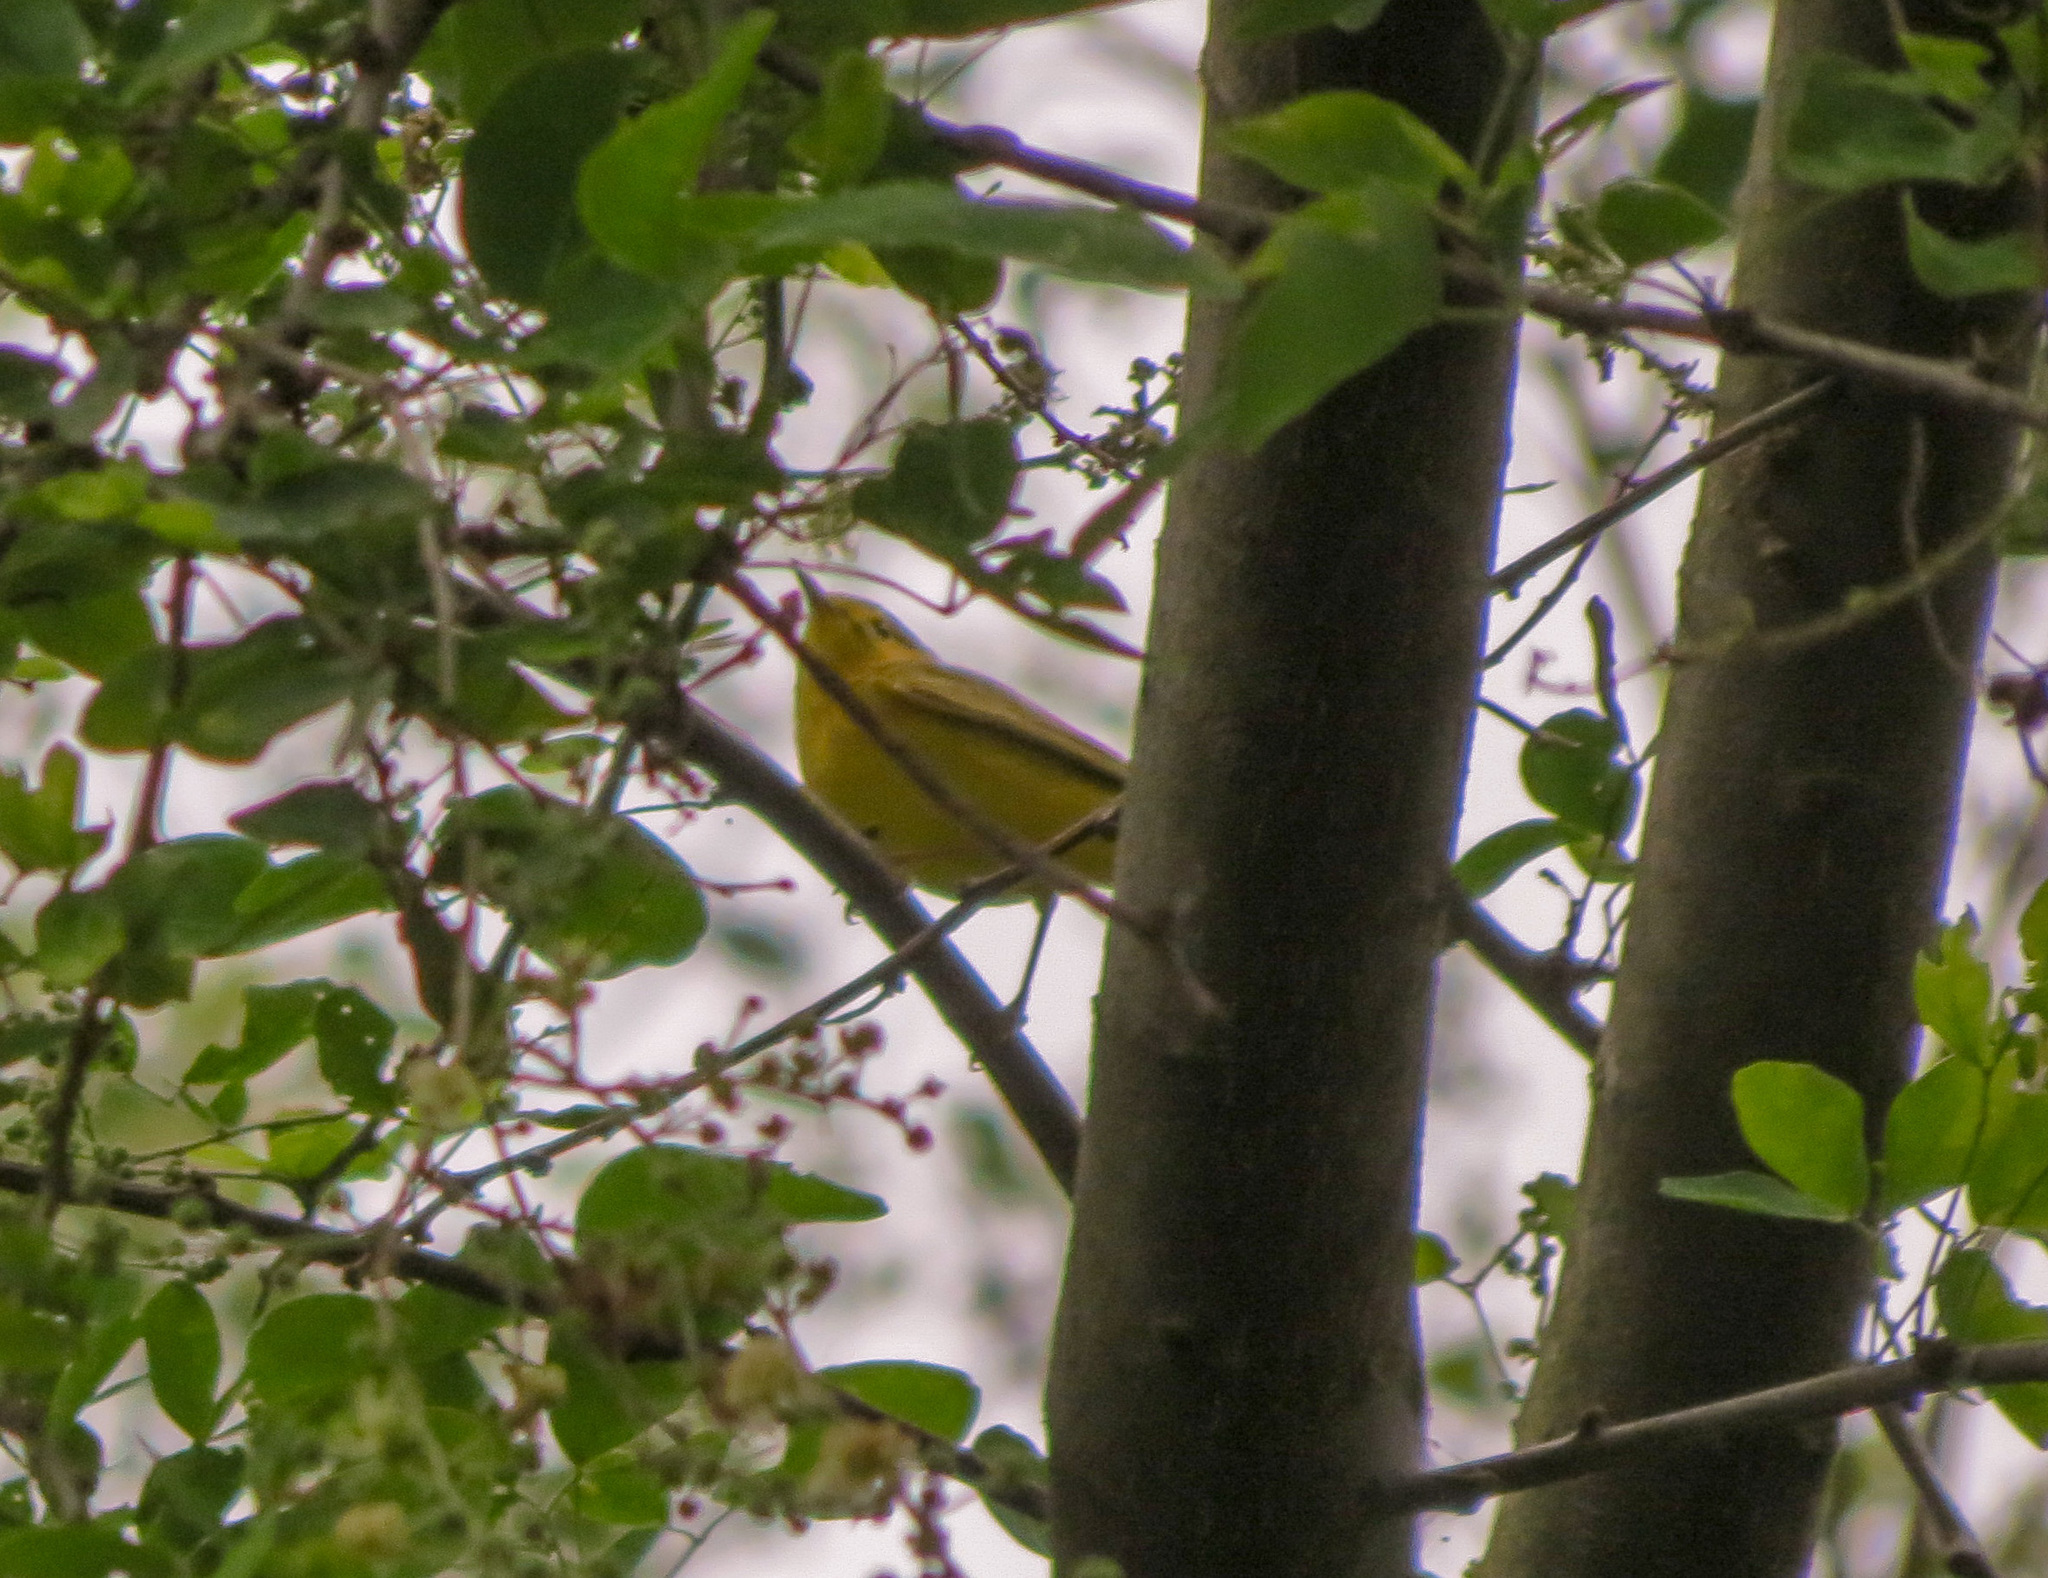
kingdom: Animalia
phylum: Chordata
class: Aves
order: Passeriformes
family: Parulidae
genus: Setophaga
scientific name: Setophaga petechia
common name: Yellow warbler
